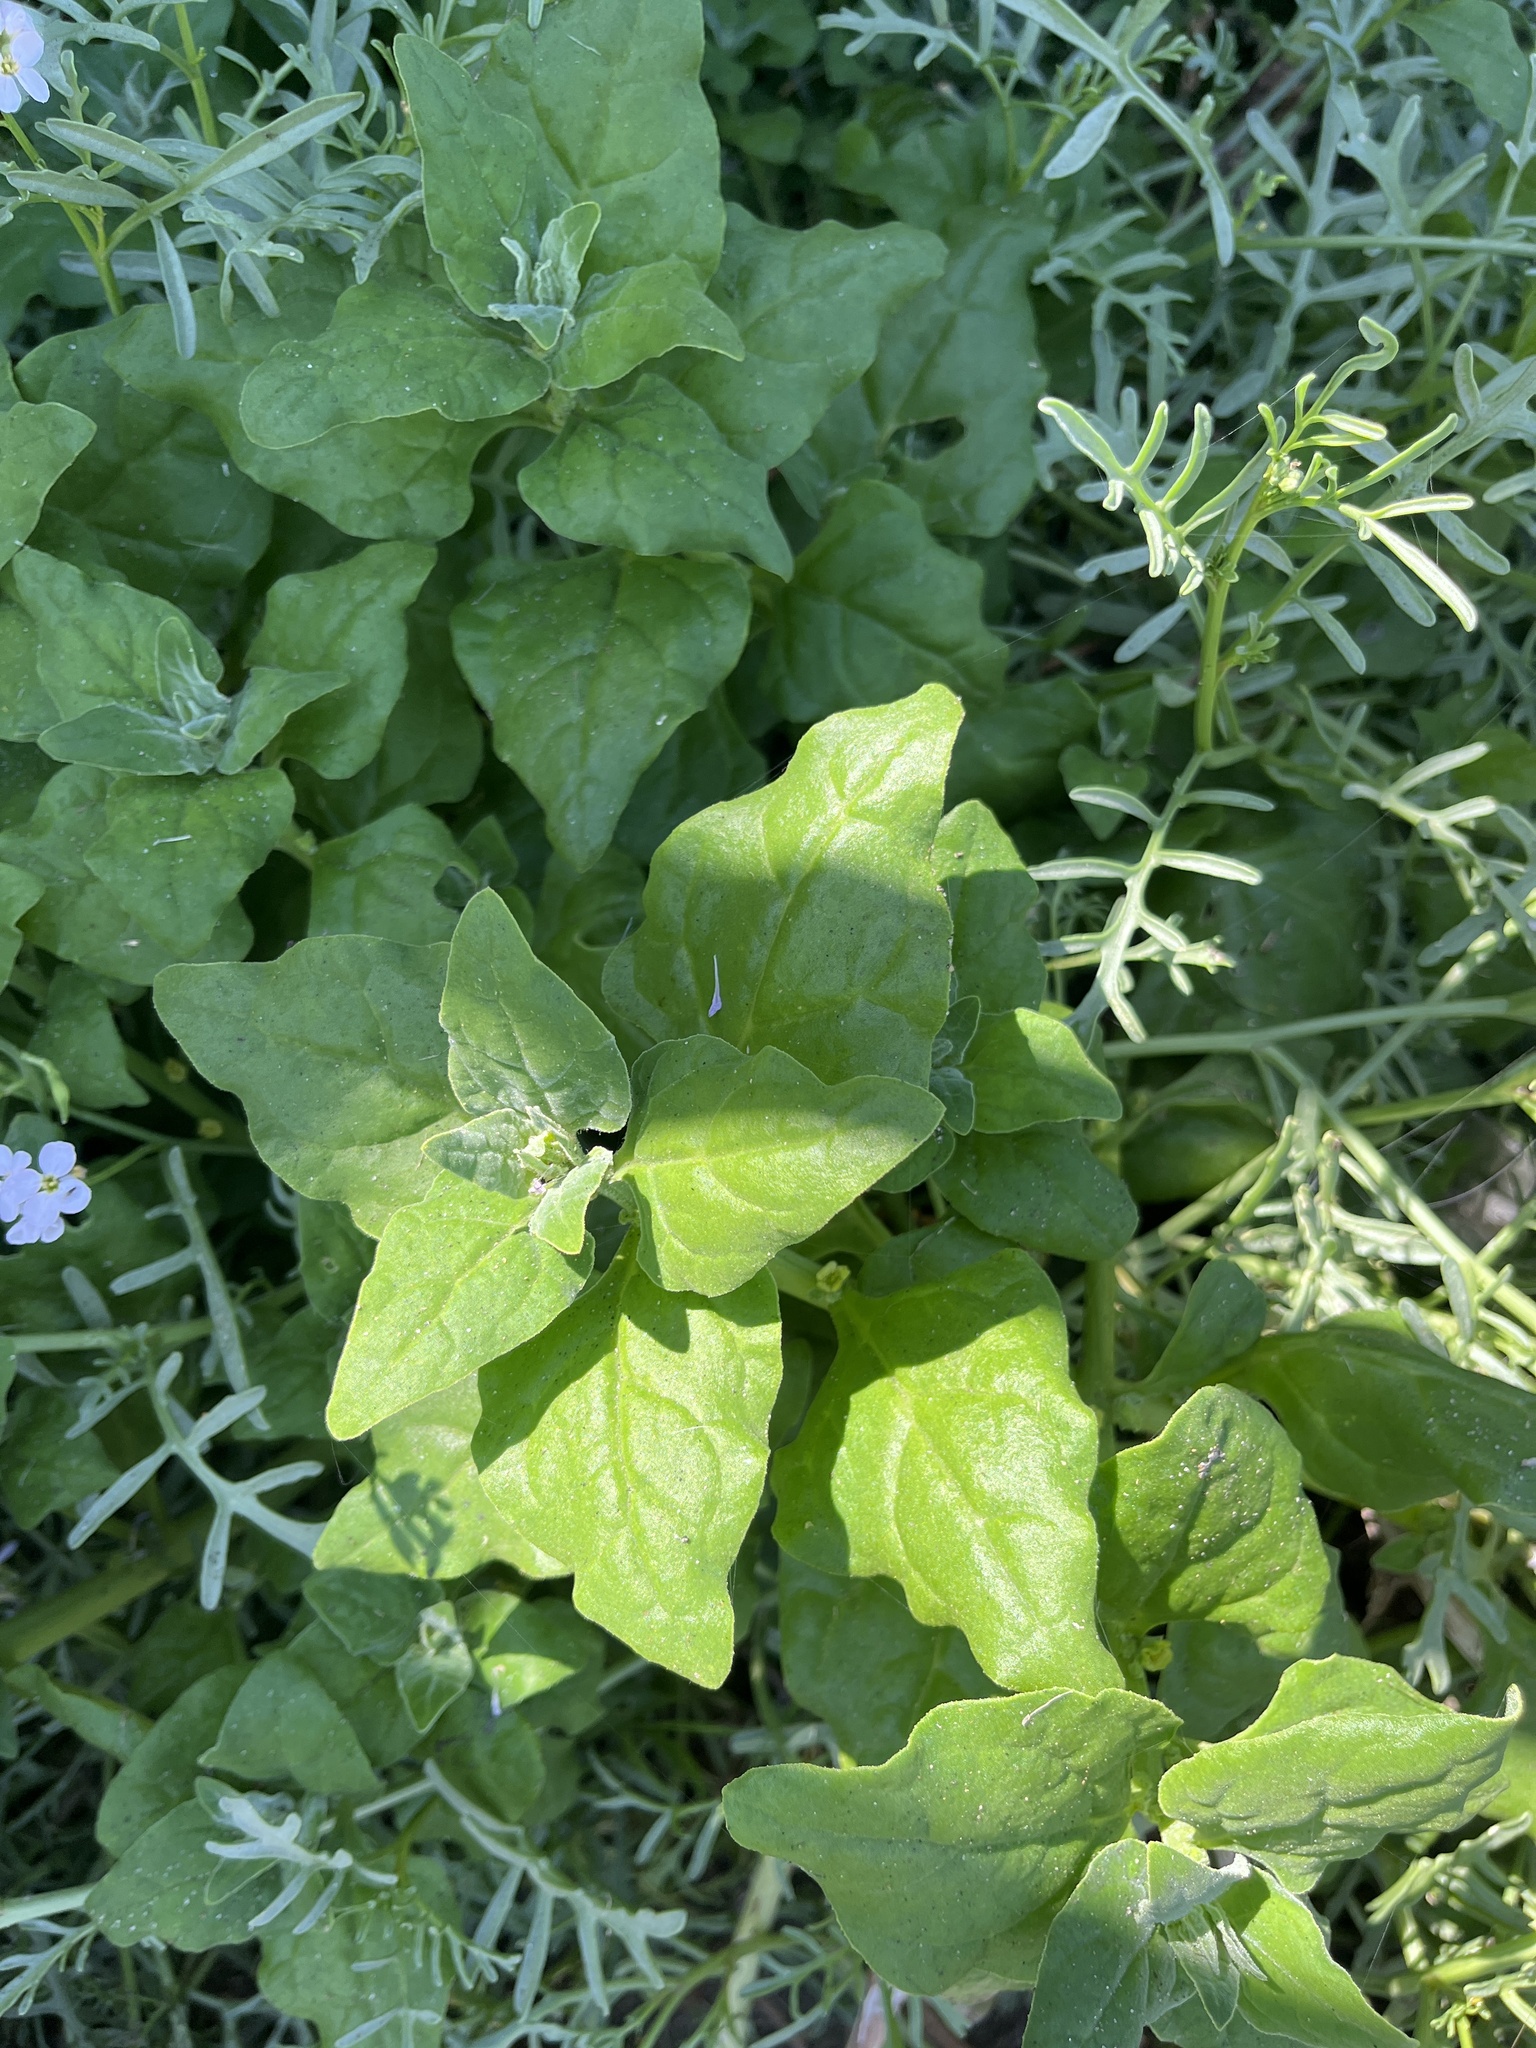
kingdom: Plantae
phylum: Tracheophyta
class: Magnoliopsida
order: Caryophyllales
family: Aizoaceae
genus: Tetragonia
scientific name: Tetragonia tetragonoides
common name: New zealand-spinach
